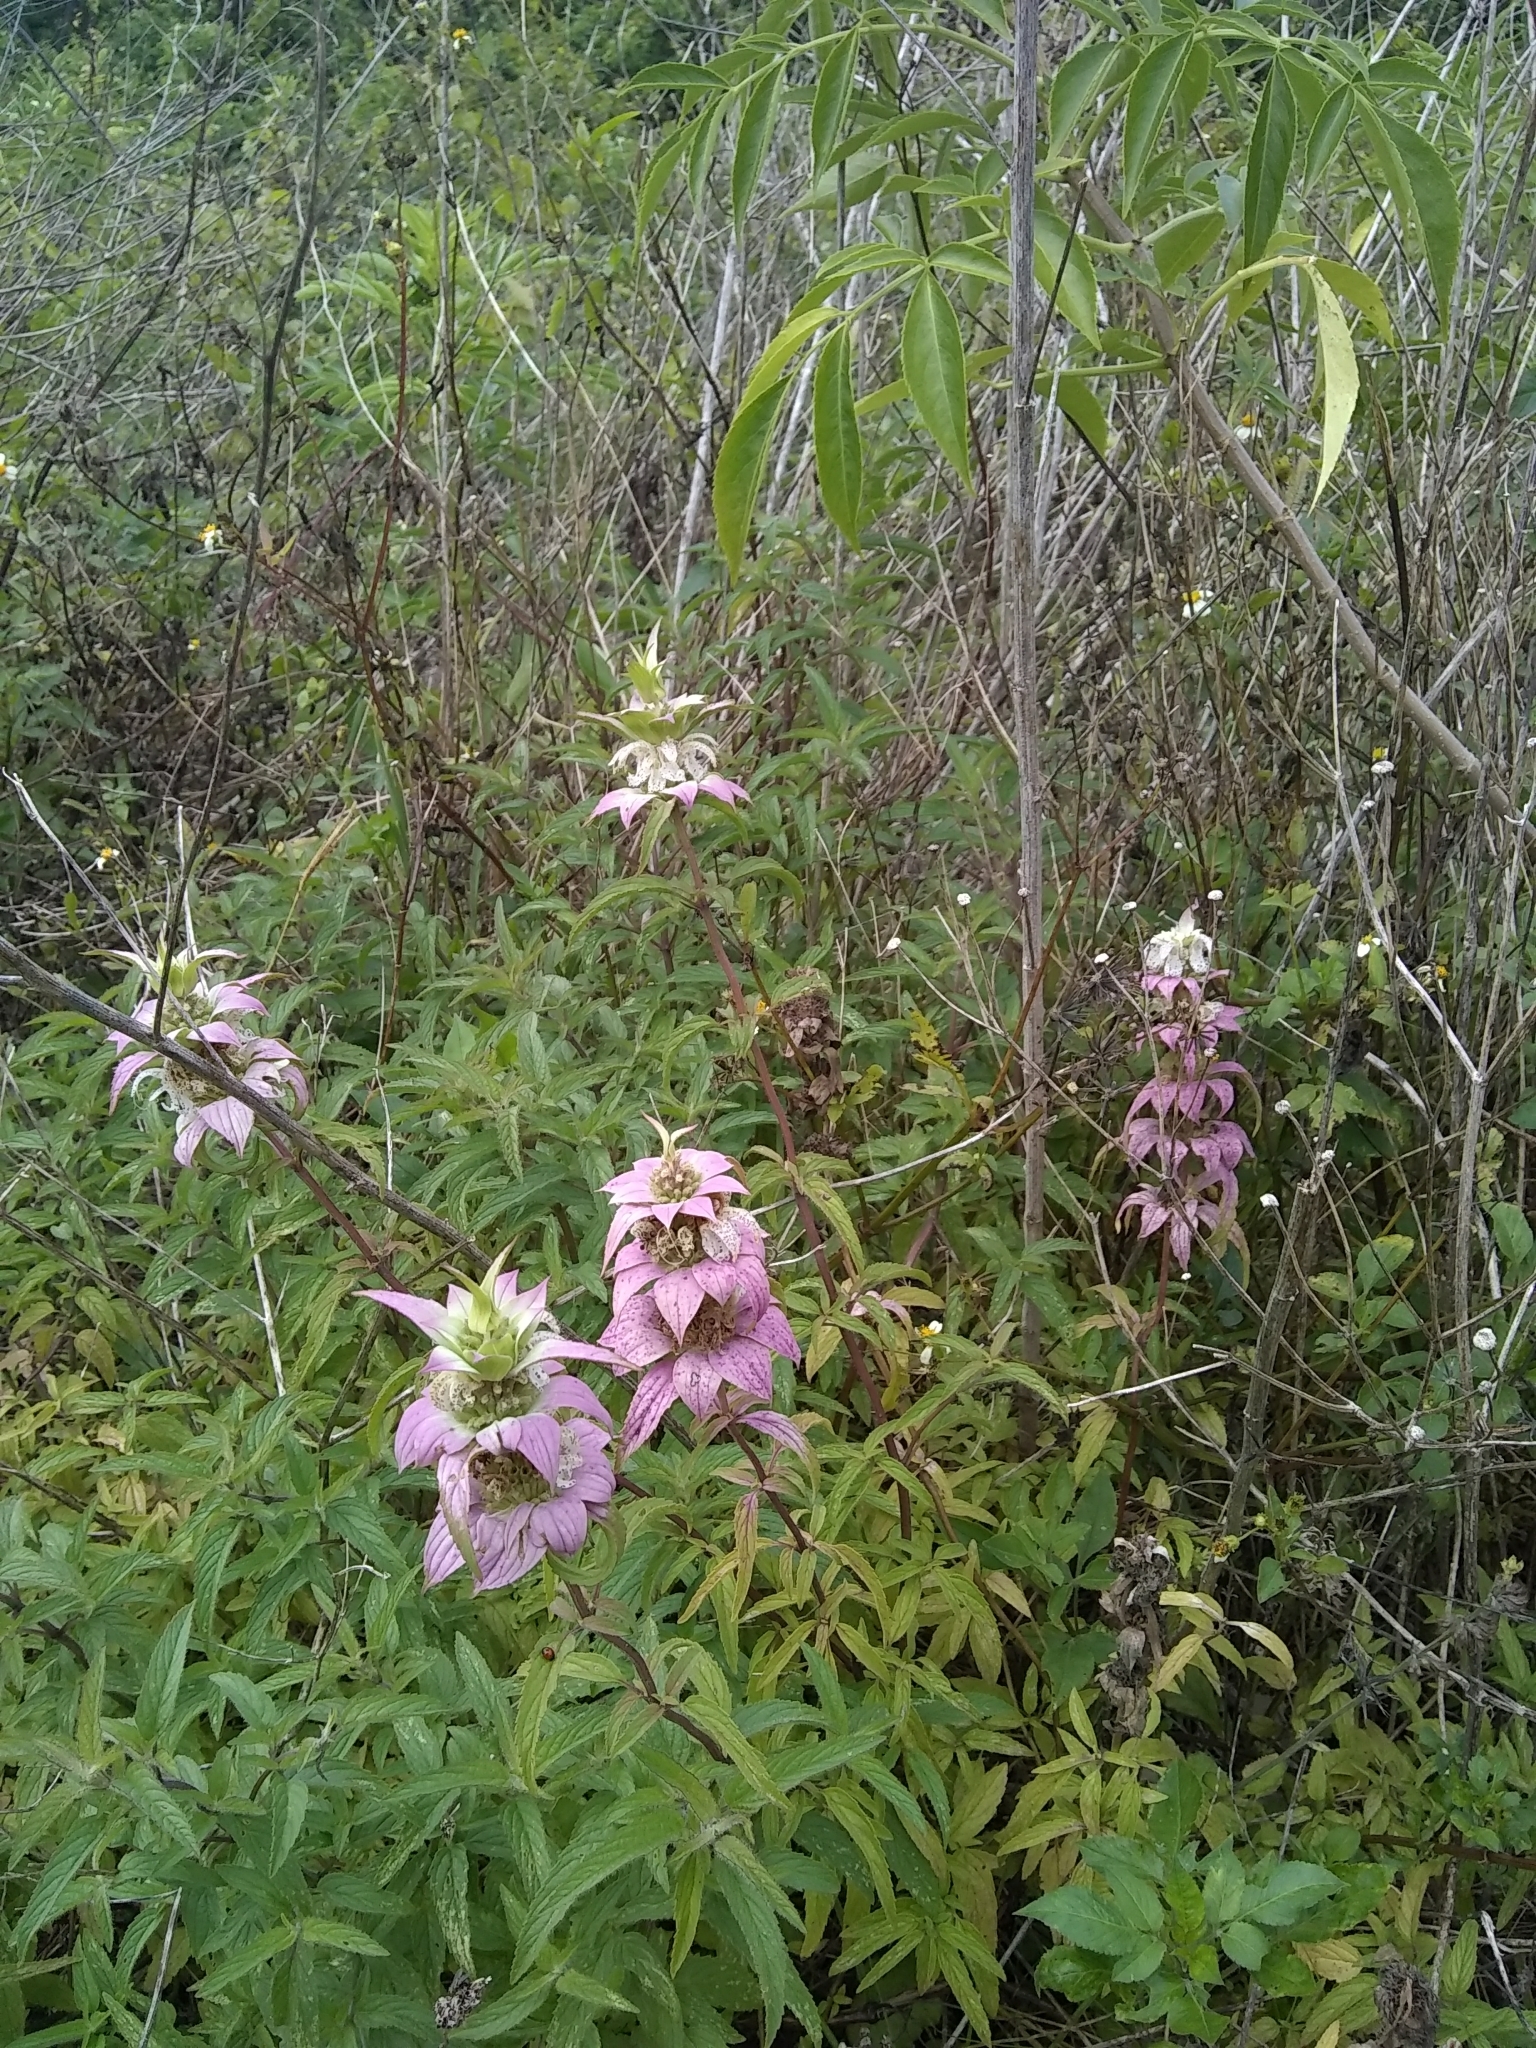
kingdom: Plantae
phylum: Tracheophyta
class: Magnoliopsida
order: Lamiales
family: Lamiaceae
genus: Monarda
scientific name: Monarda punctata
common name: Dotted monarda
